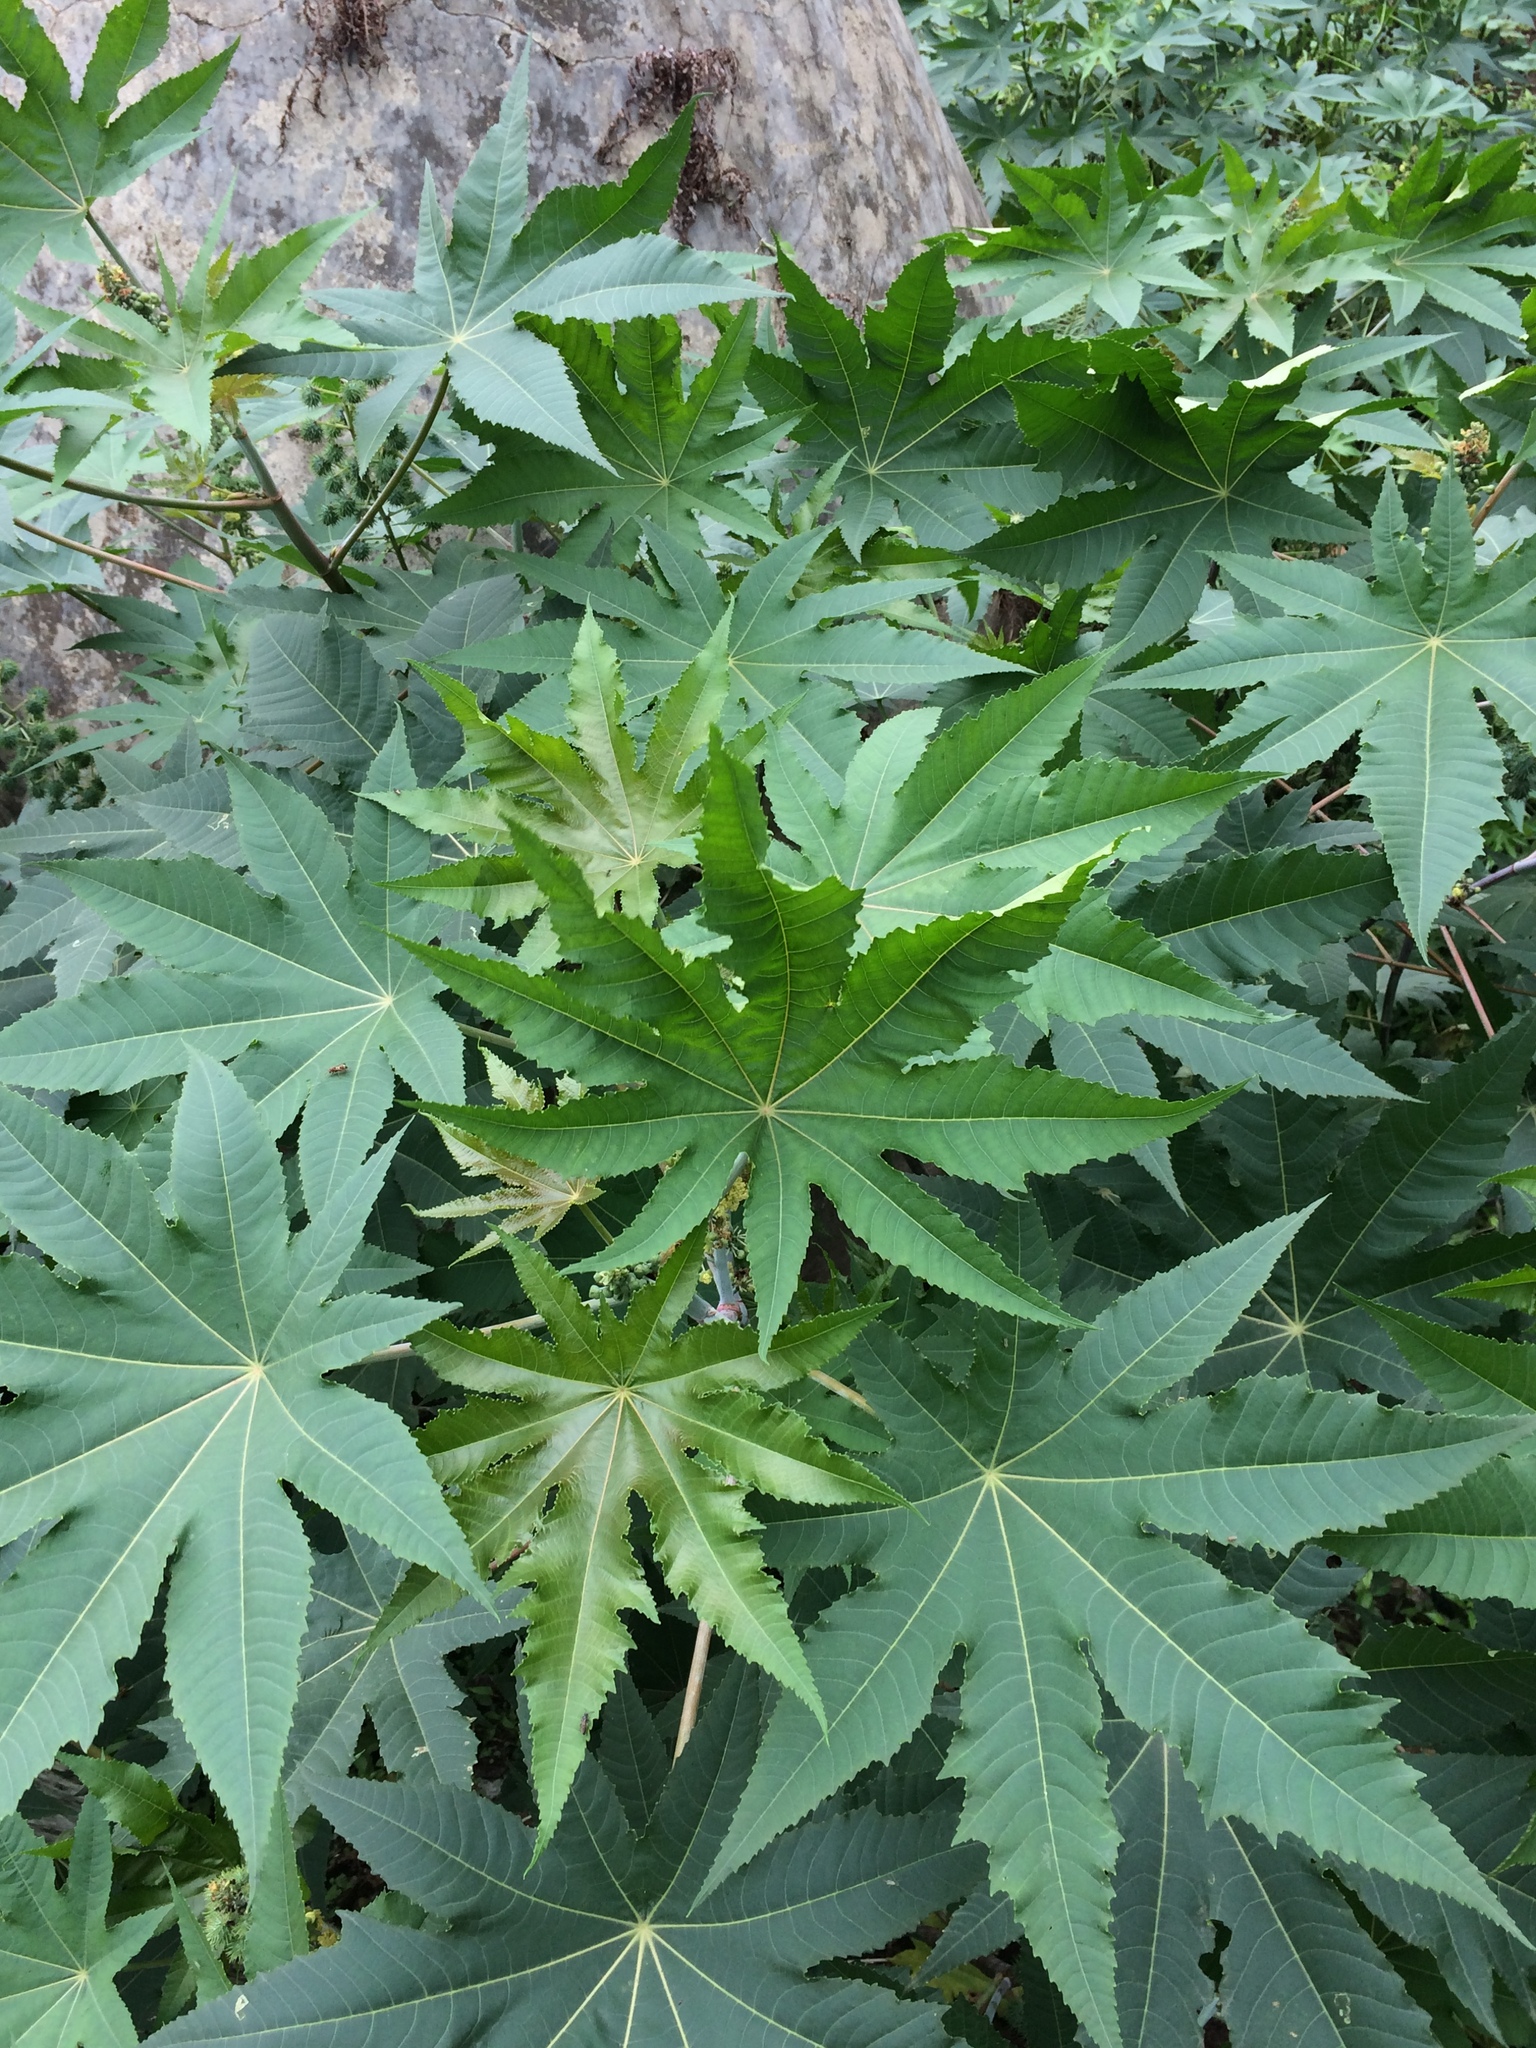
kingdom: Plantae
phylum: Tracheophyta
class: Magnoliopsida
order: Malpighiales
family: Euphorbiaceae
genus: Ricinus
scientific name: Ricinus communis
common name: Castor-oil-plant
